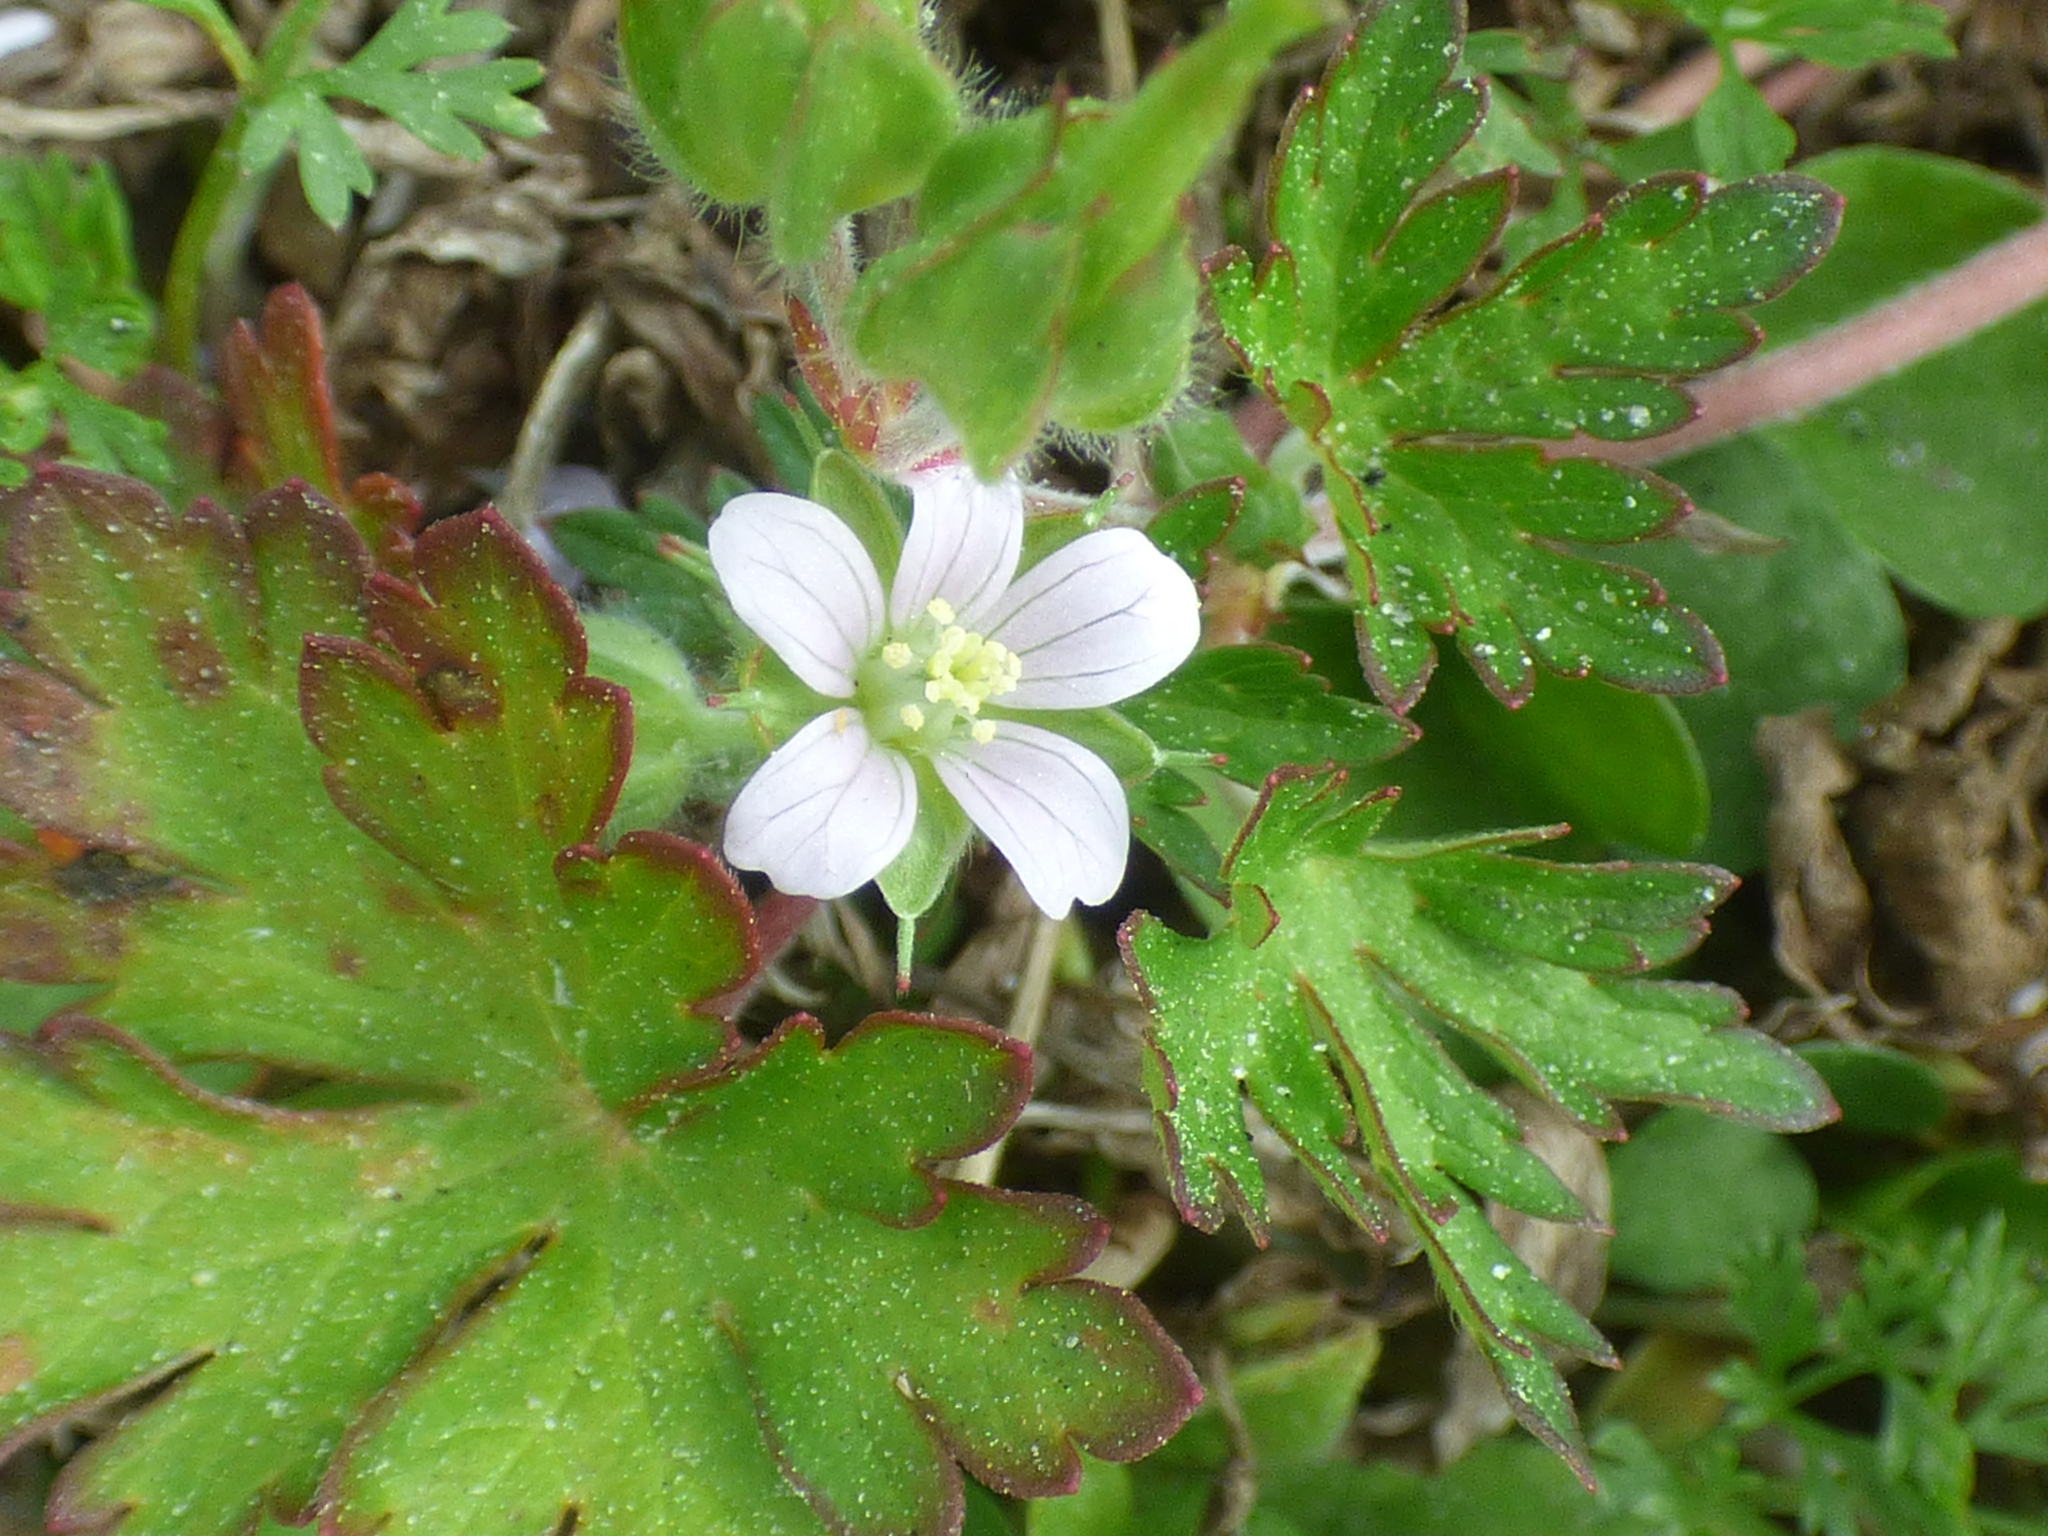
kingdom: Plantae
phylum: Tracheophyta
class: Magnoliopsida
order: Geraniales
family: Geraniaceae
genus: Geranium
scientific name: Geranium carolinianum
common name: Carolina crane's-bill
